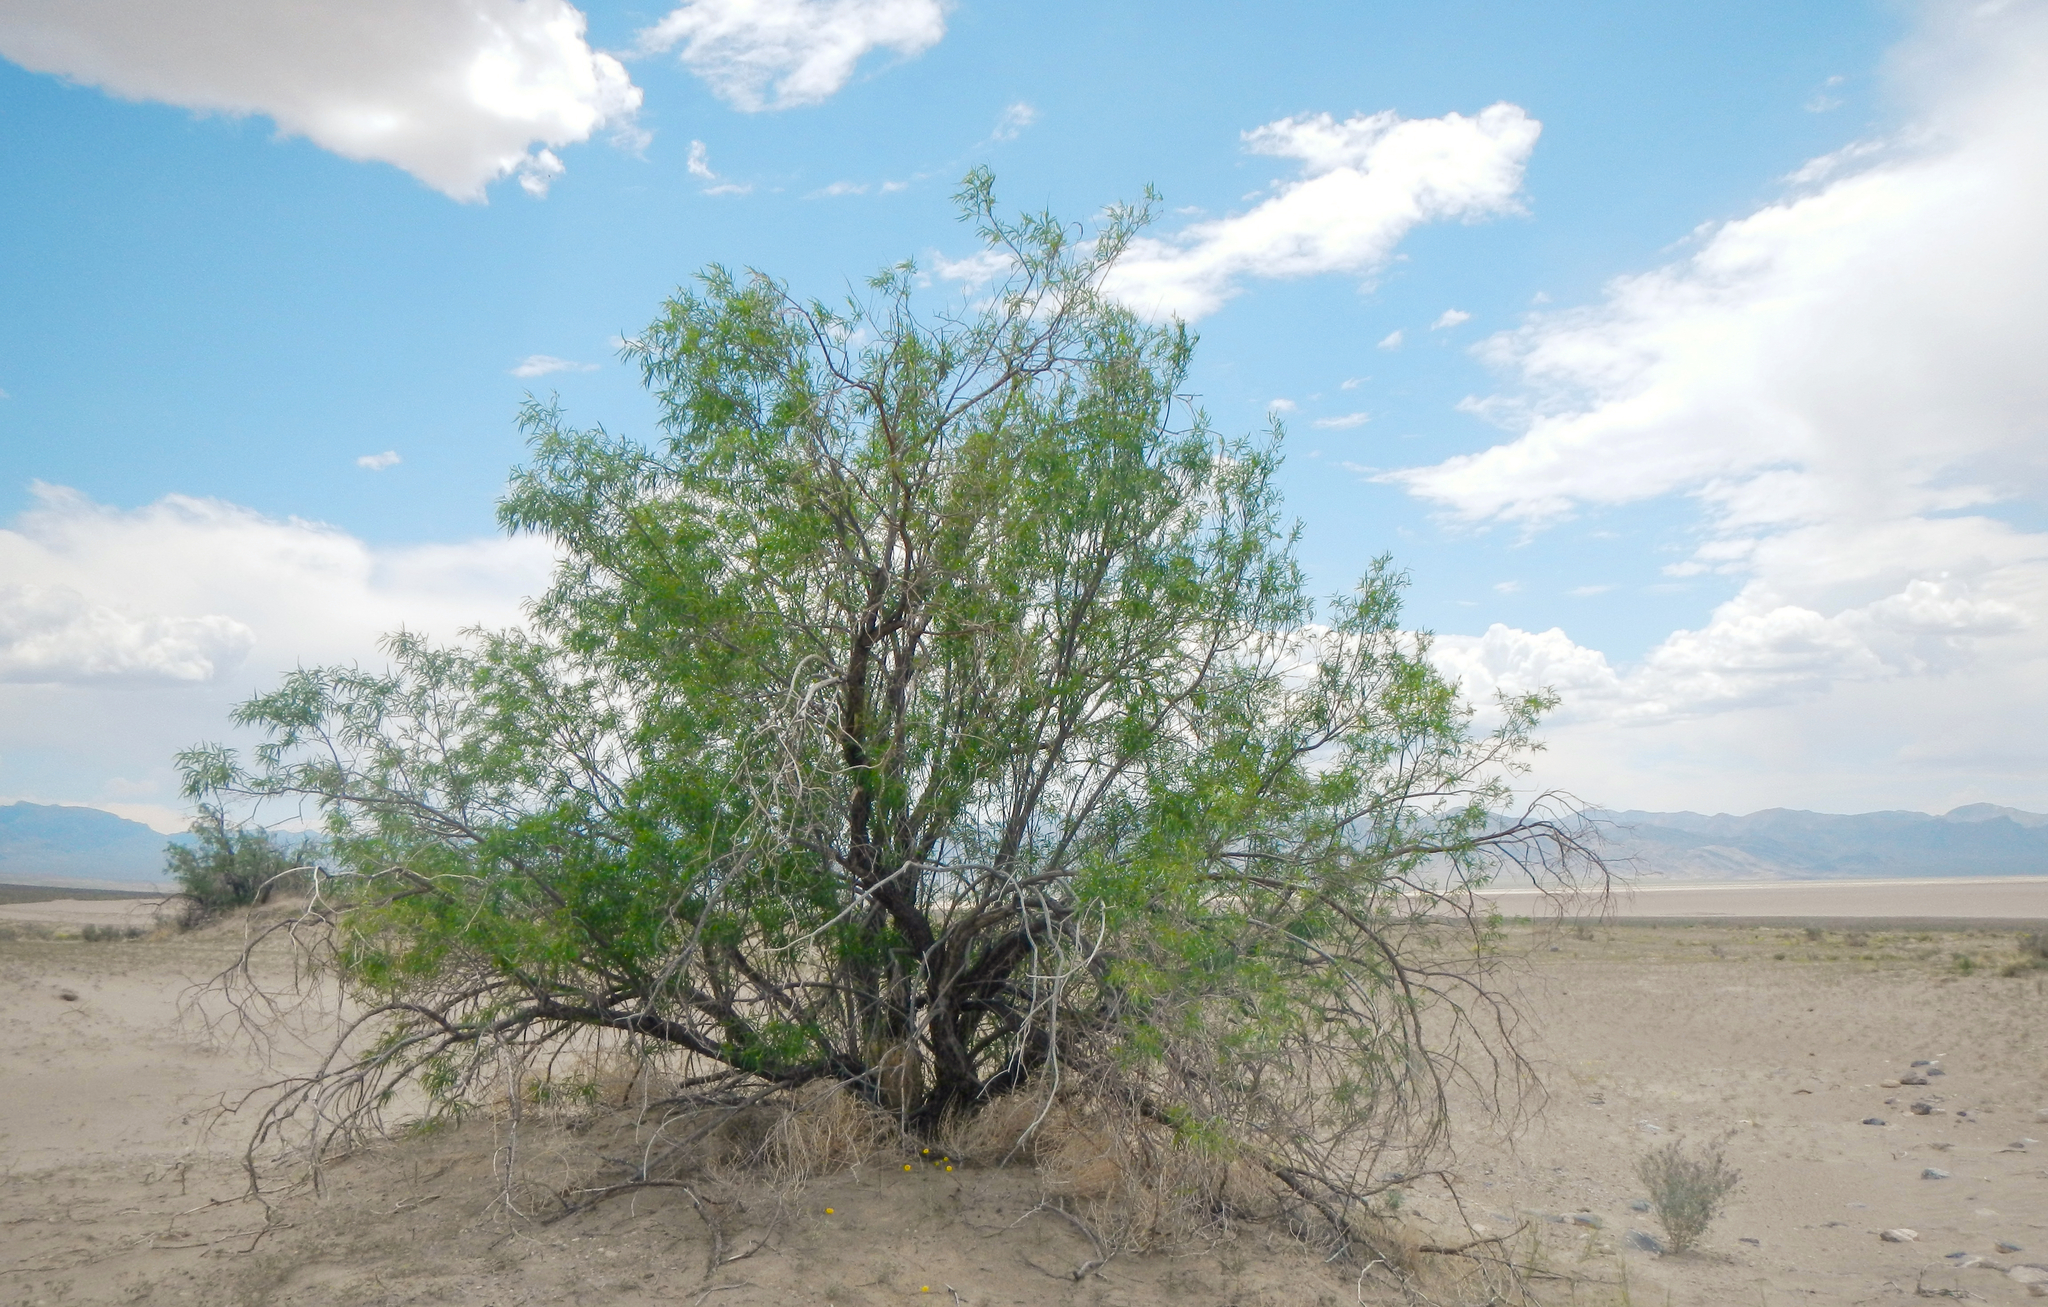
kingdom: Plantae
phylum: Tracheophyta
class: Magnoliopsida
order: Lamiales
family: Bignoniaceae
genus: Chilopsis
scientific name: Chilopsis linearis
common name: Desert-willow
